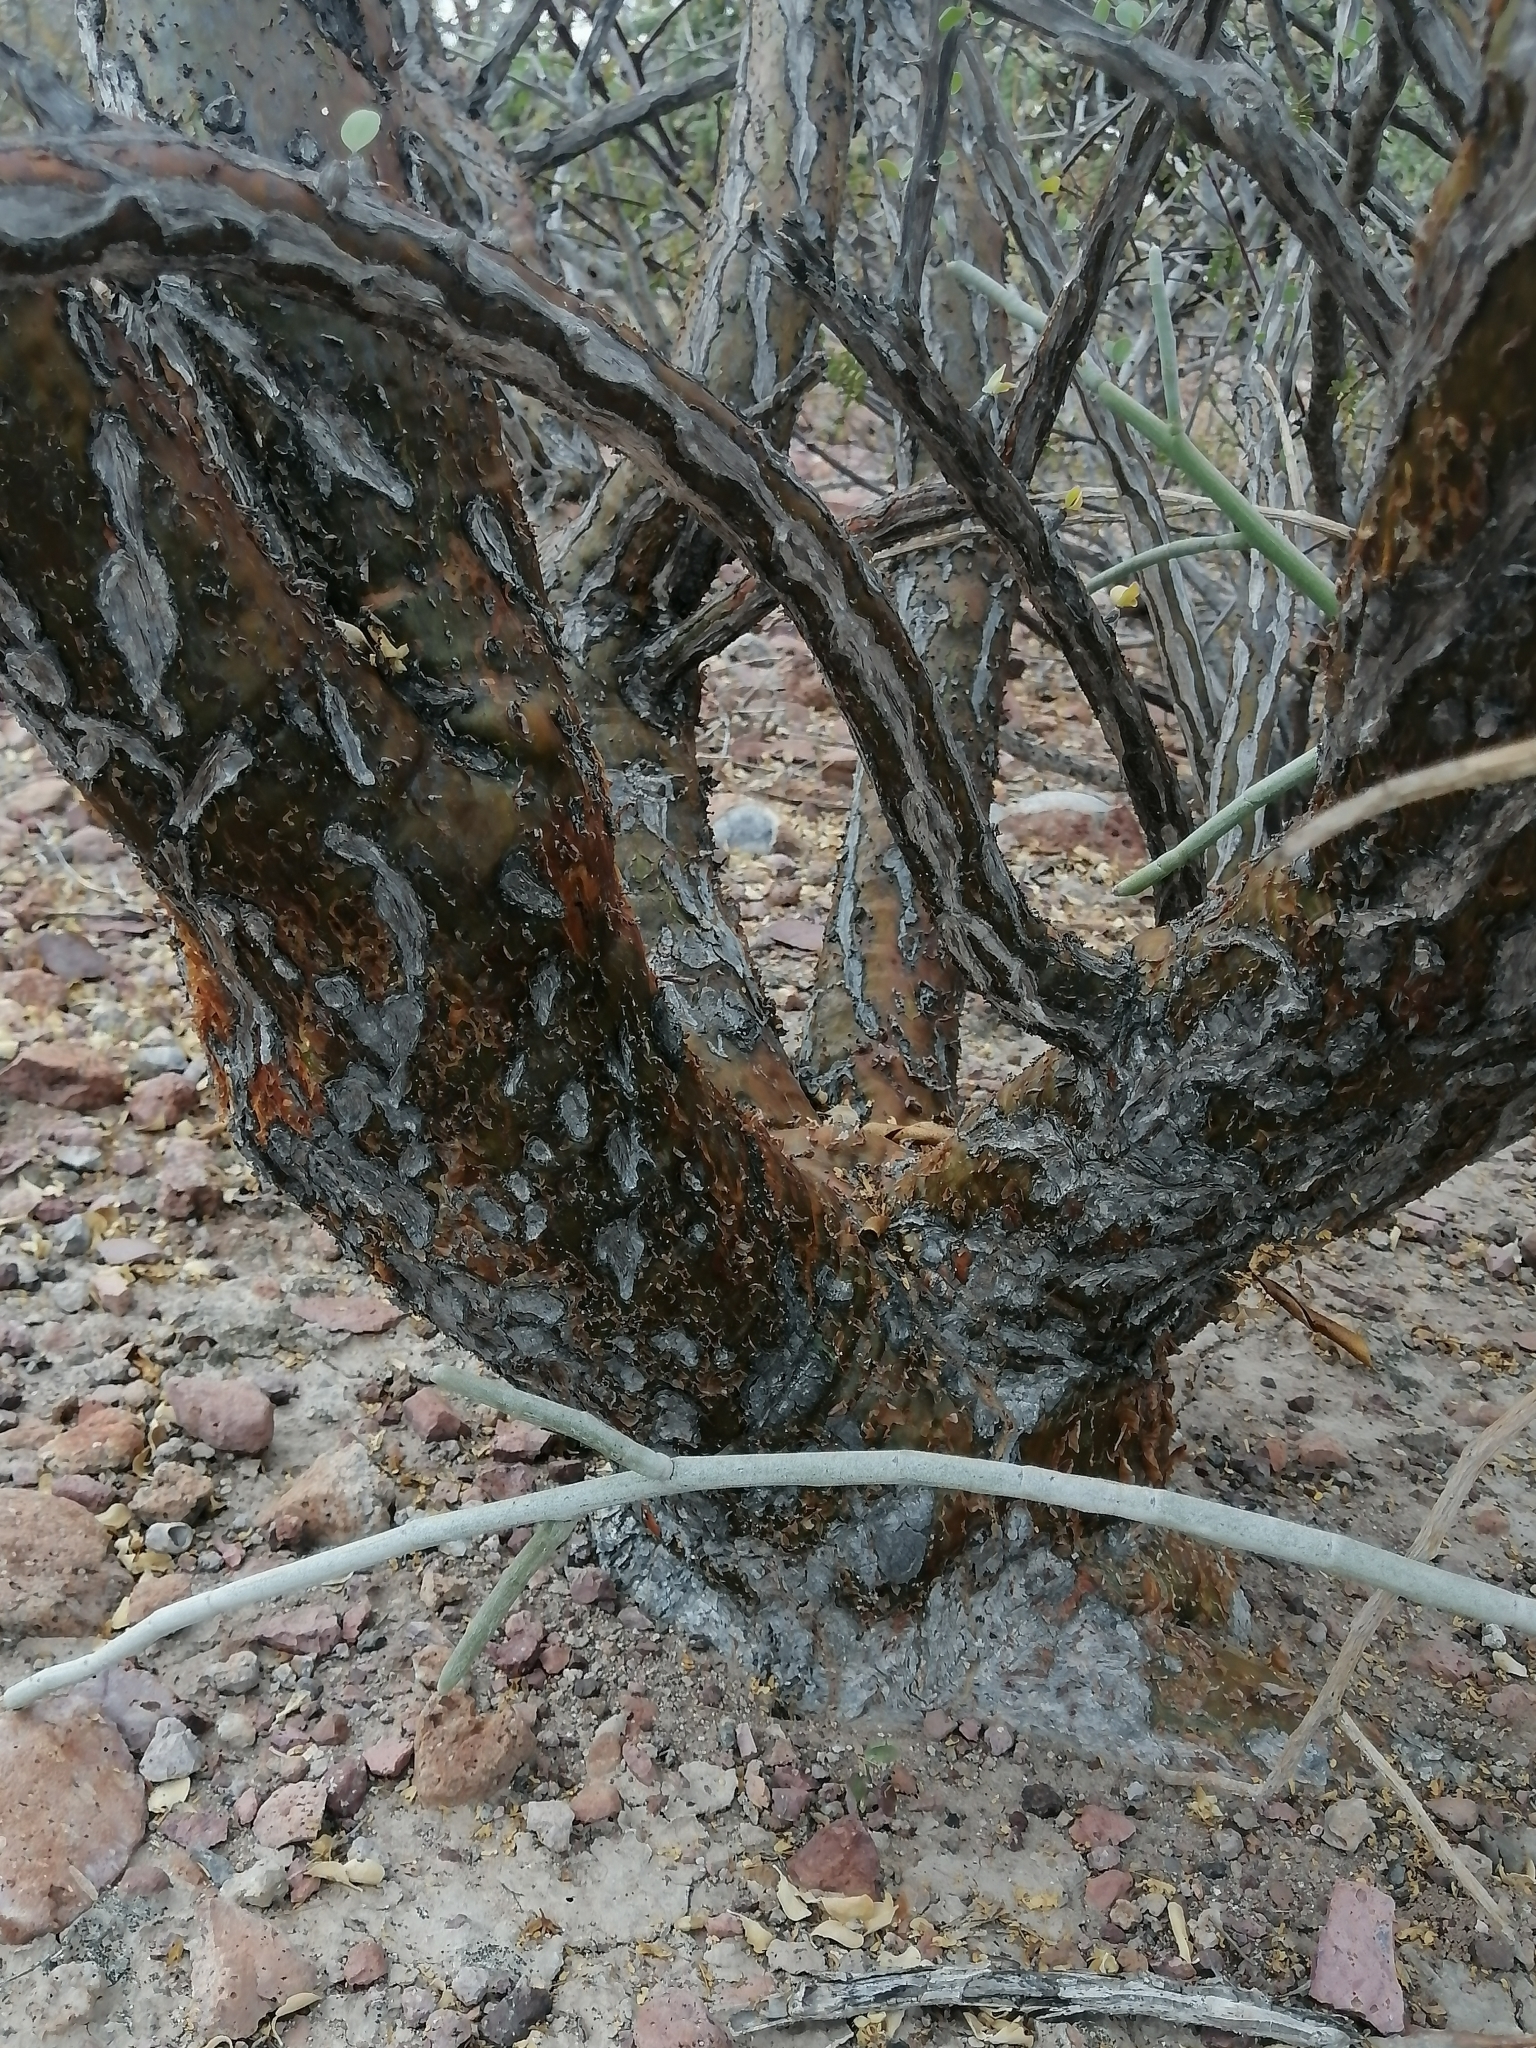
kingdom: Plantae
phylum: Tracheophyta
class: Magnoliopsida
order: Ericales
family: Fouquieriaceae
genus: Fouquieria
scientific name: Fouquieria burragei
